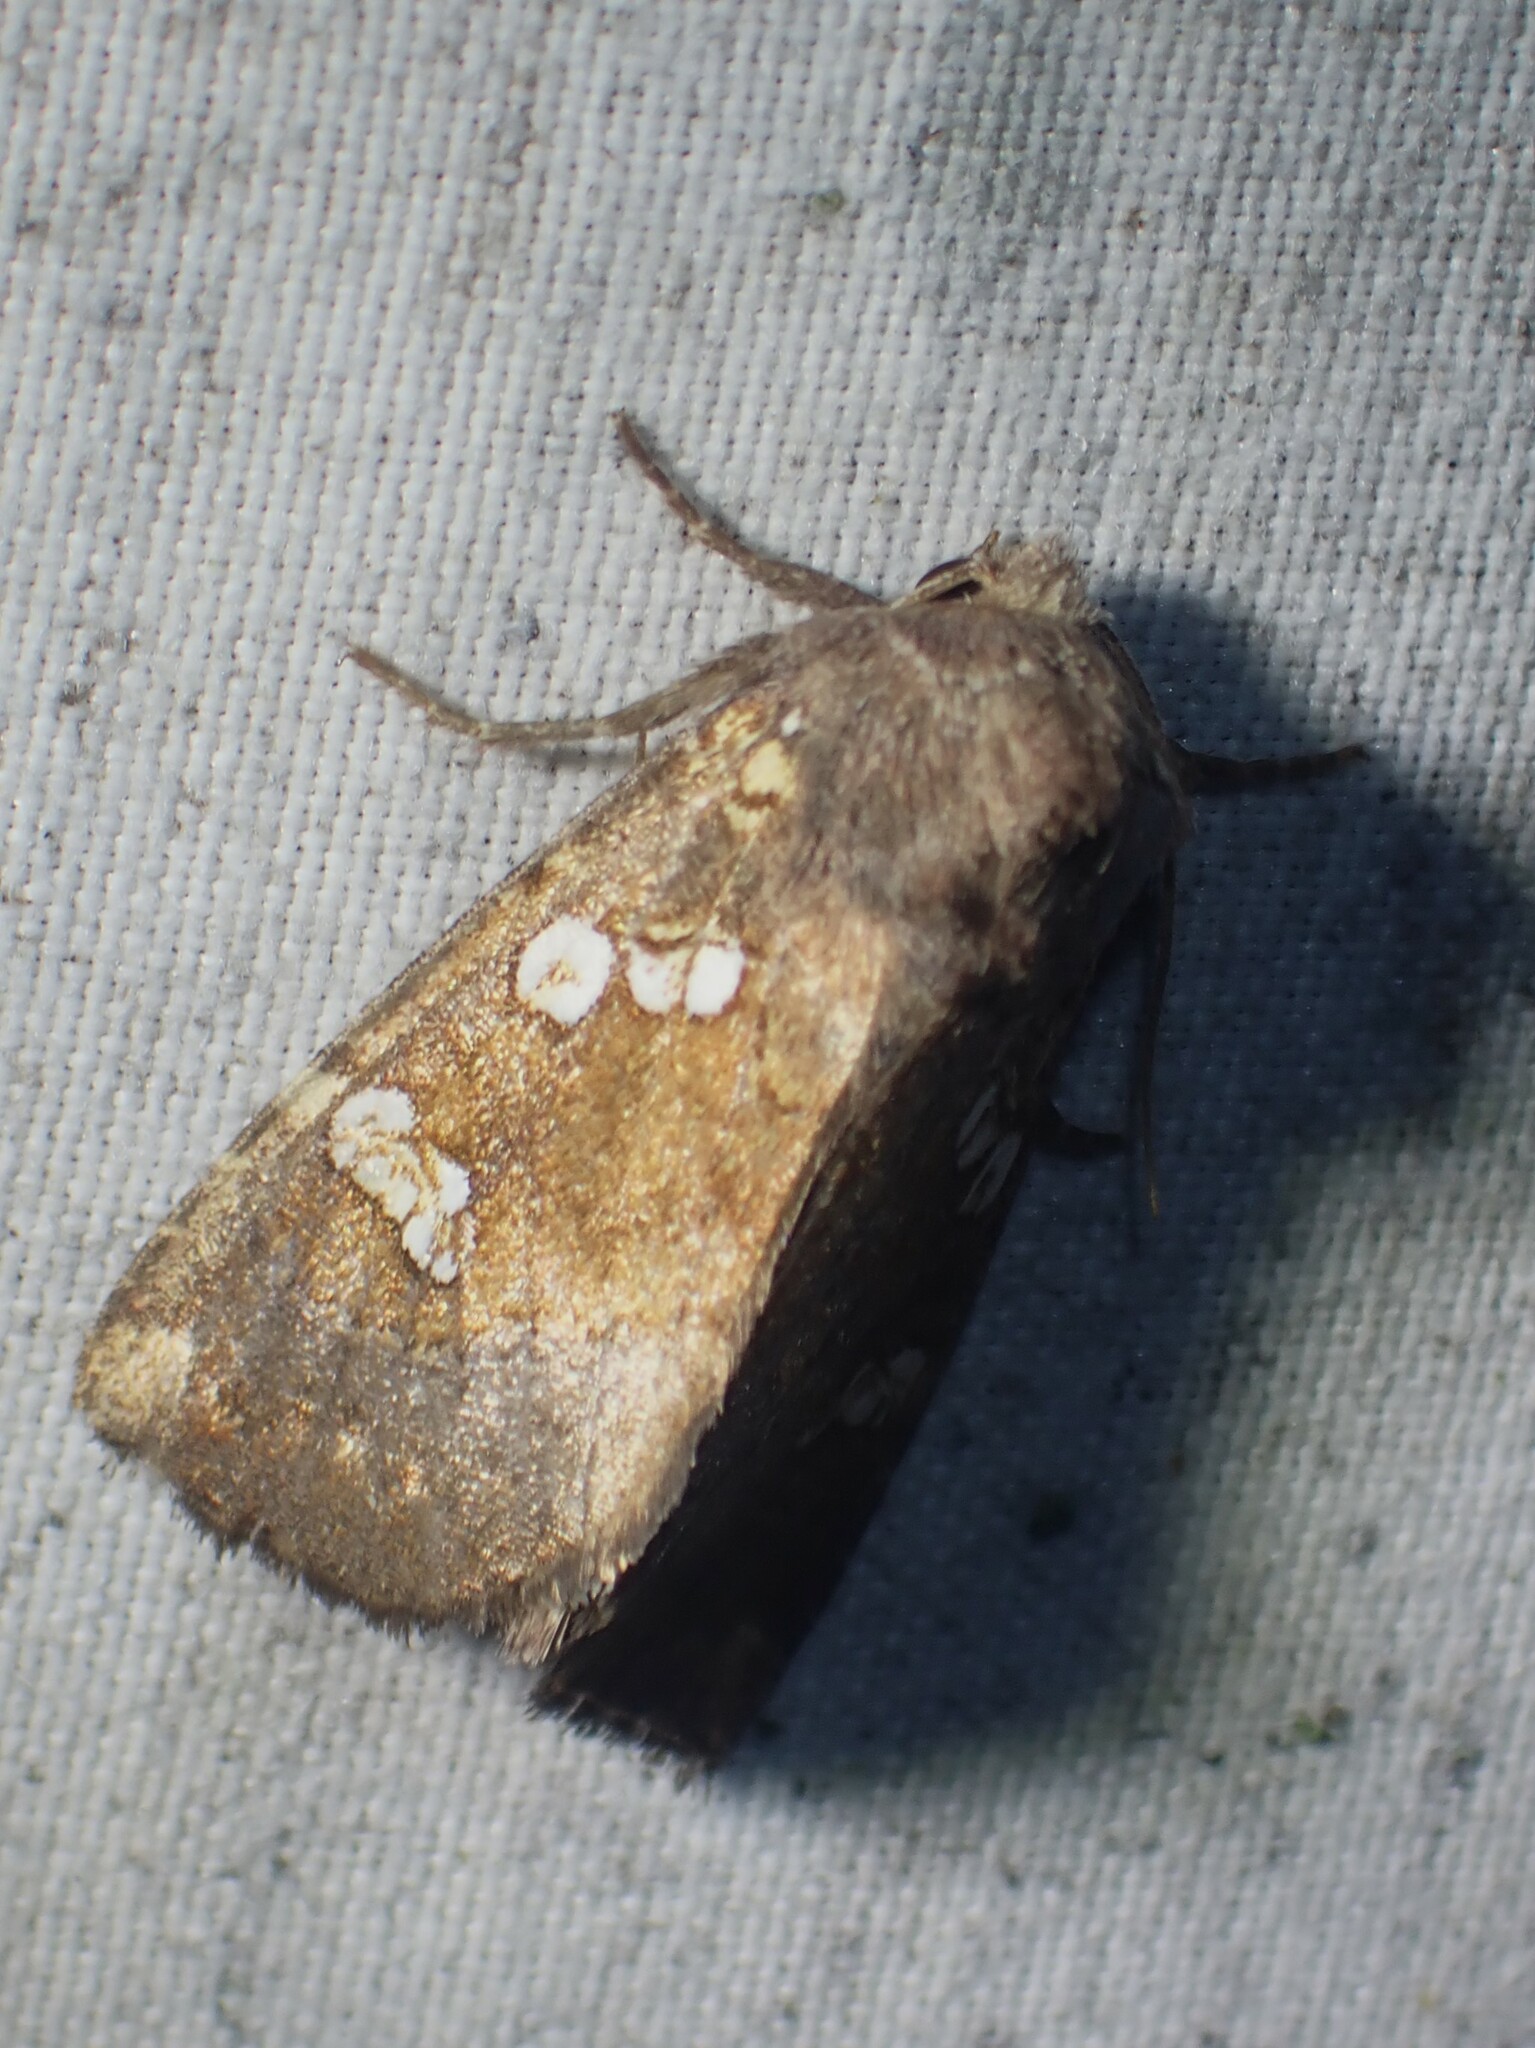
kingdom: Animalia
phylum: Arthropoda
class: Insecta
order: Lepidoptera
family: Noctuidae
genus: Papaipema
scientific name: Papaipema unimoda
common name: Meadow rue borer moth
